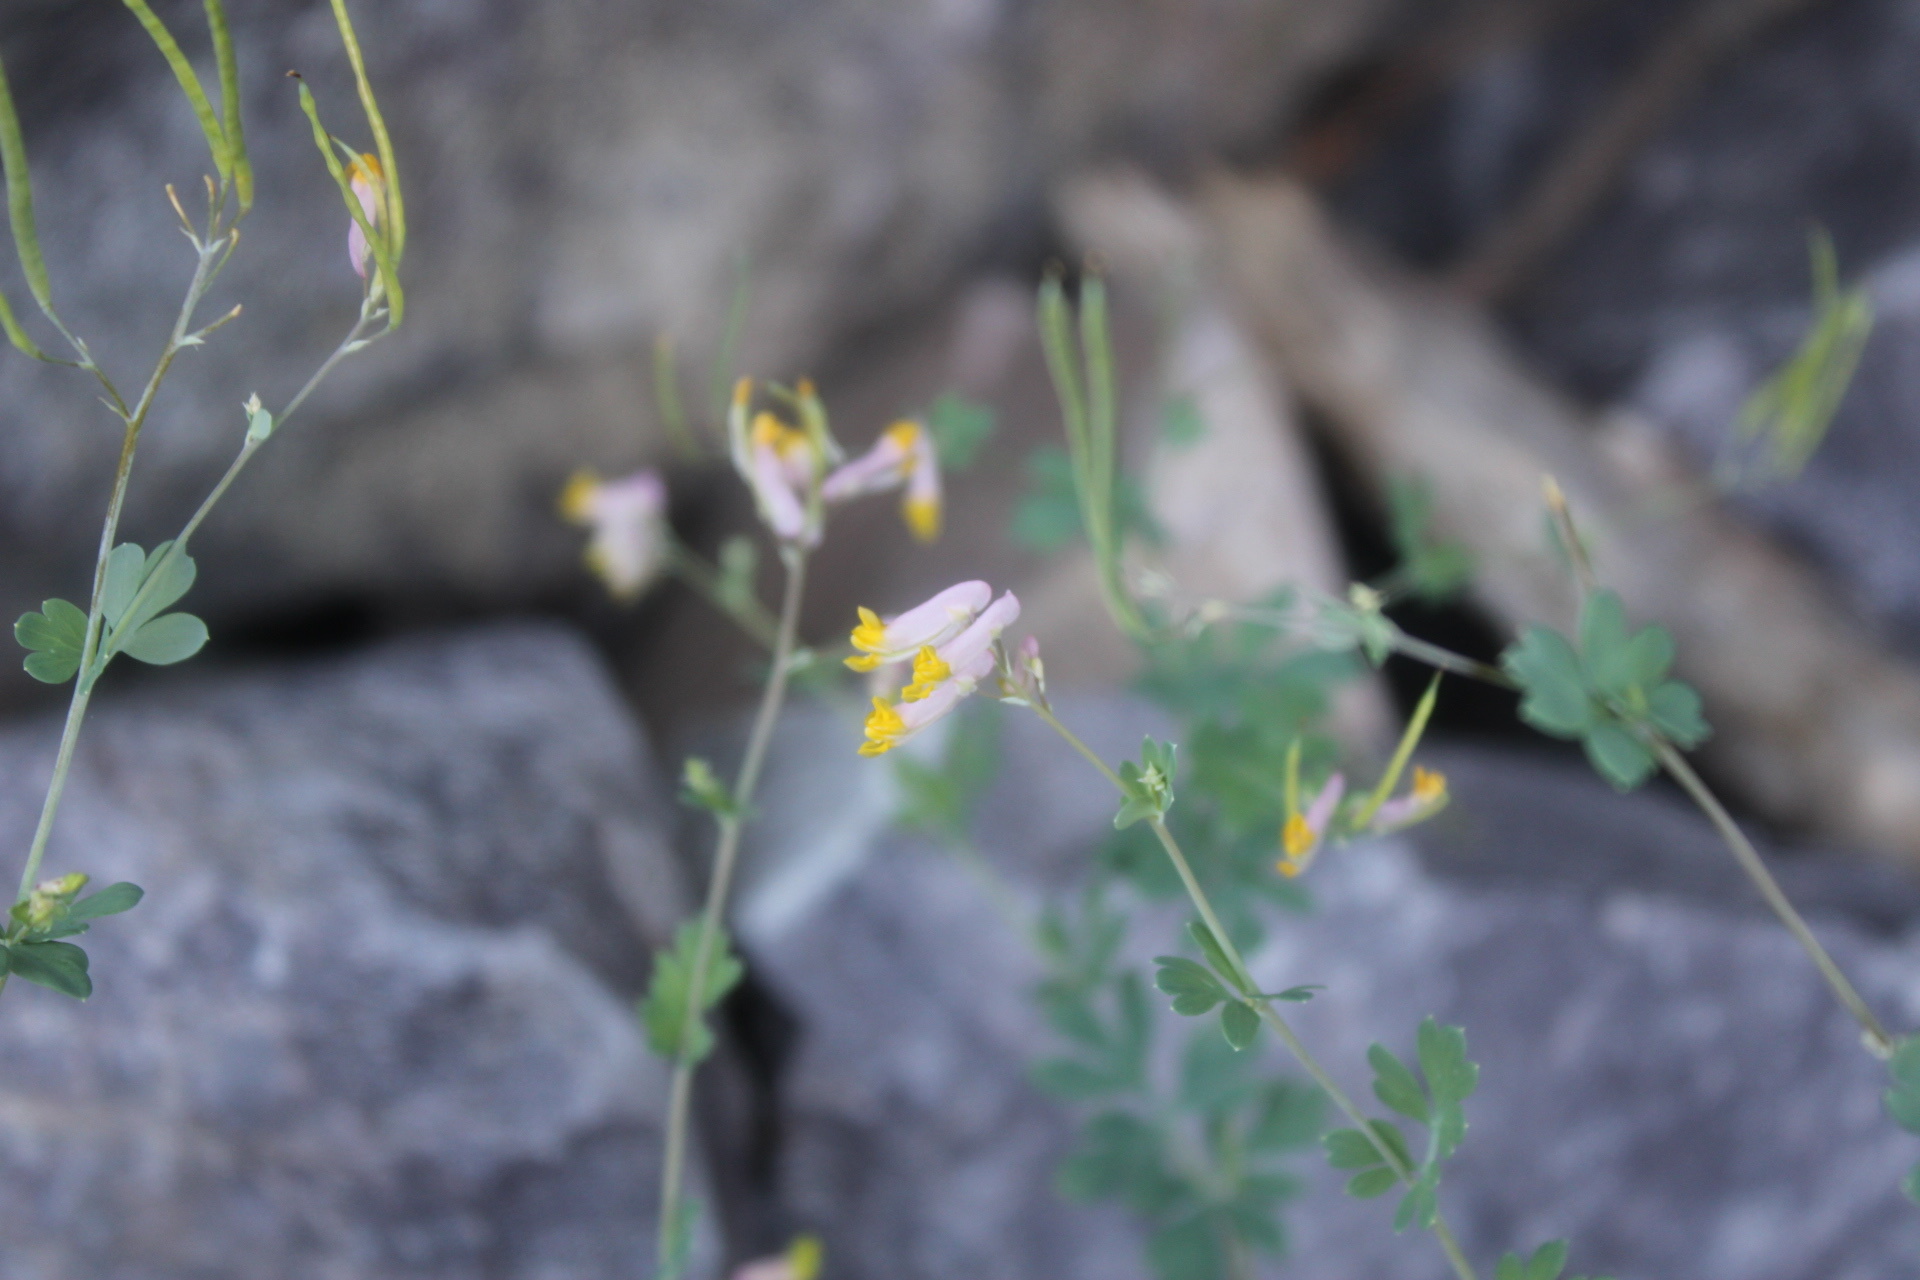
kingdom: Plantae
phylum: Tracheophyta
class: Magnoliopsida
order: Ranunculales
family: Papaveraceae
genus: Capnoides
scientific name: Capnoides sempervirens
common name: Rock harlequin
